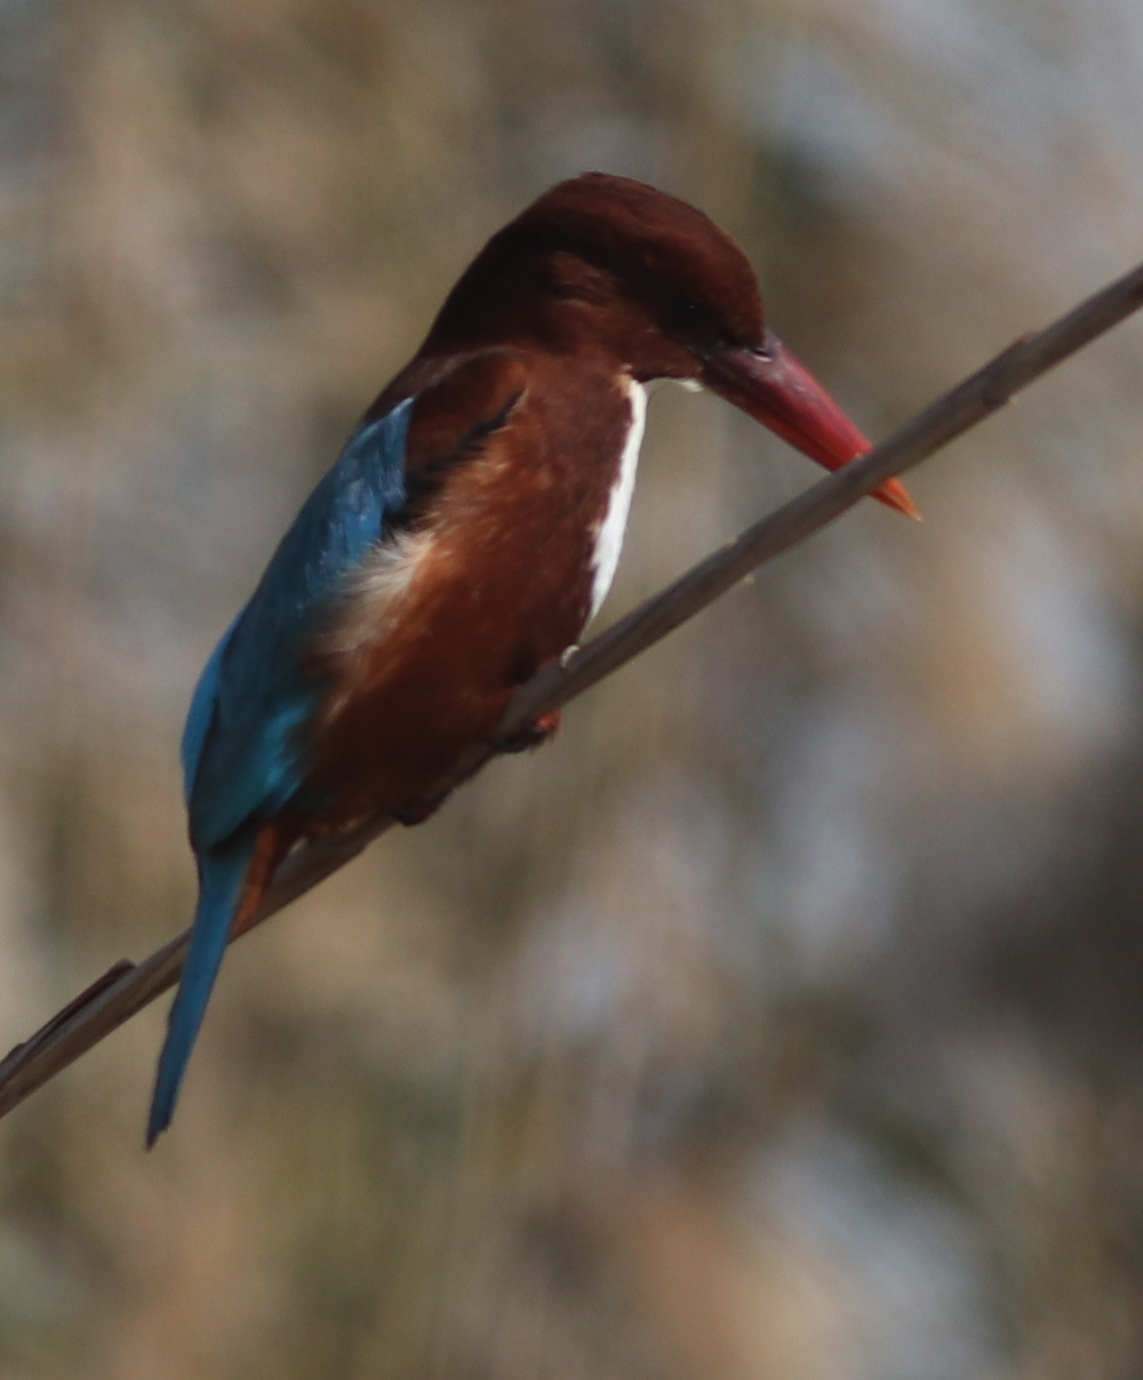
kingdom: Animalia
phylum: Chordata
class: Aves
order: Coraciiformes
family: Alcedinidae
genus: Halcyon
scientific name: Halcyon smyrnensis
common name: White-throated kingfisher
